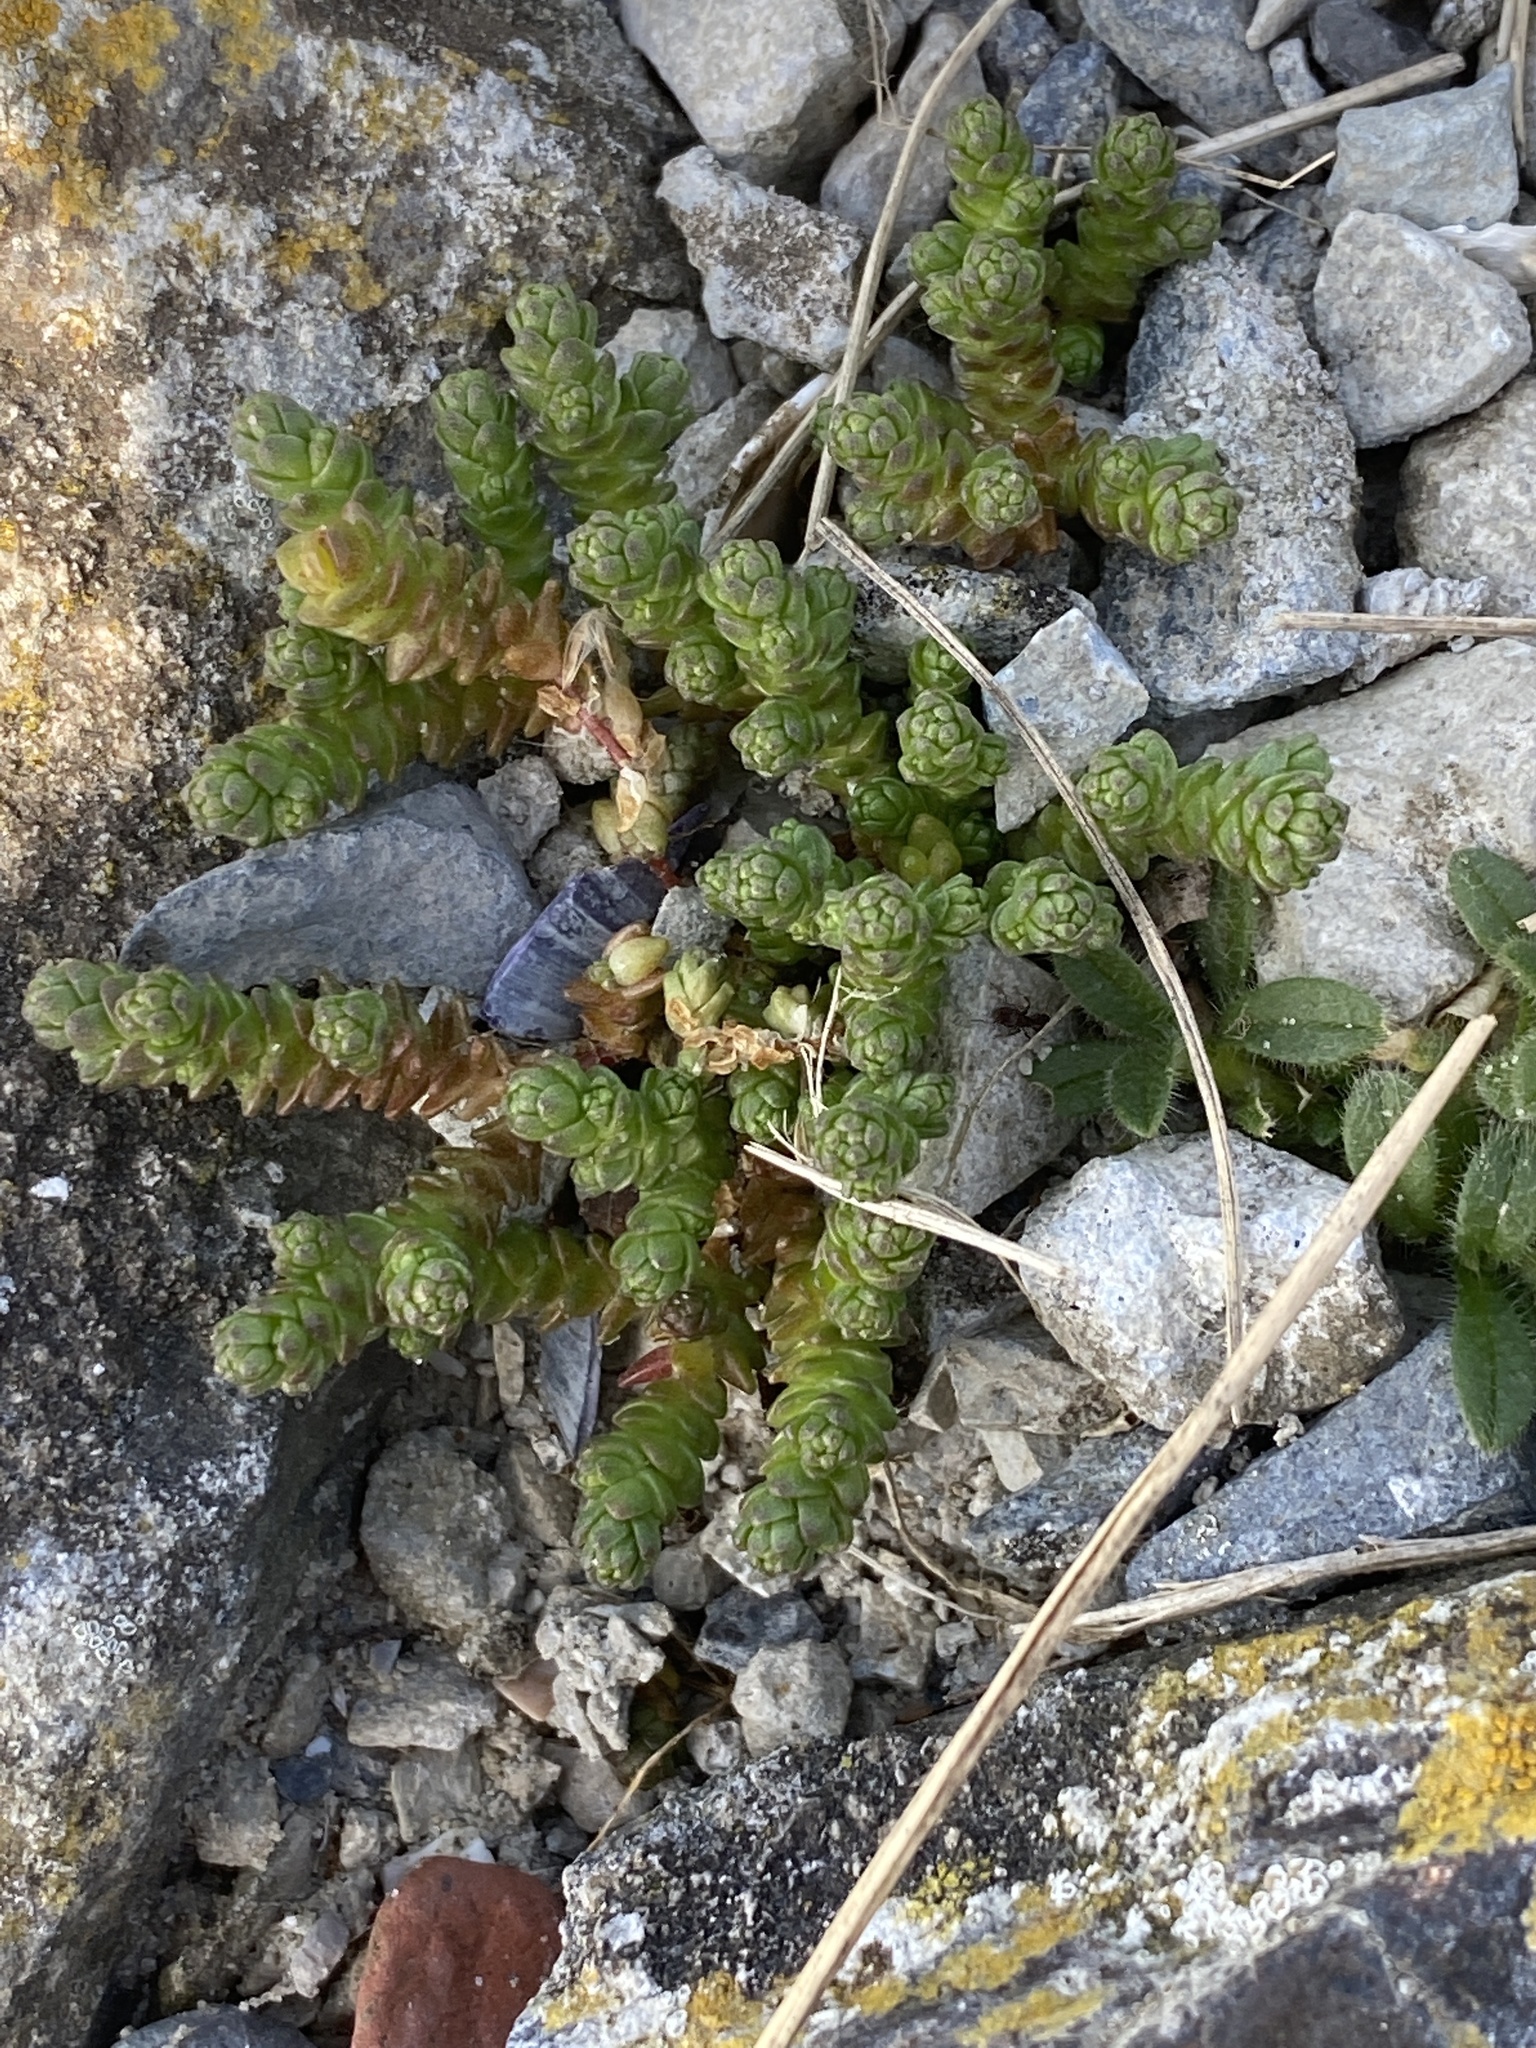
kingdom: Plantae
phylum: Tracheophyta
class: Magnoliopsida
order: Saxifragales
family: Crassulaceae
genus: Sedum
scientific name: Sedum acre
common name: Biting stonecrop
